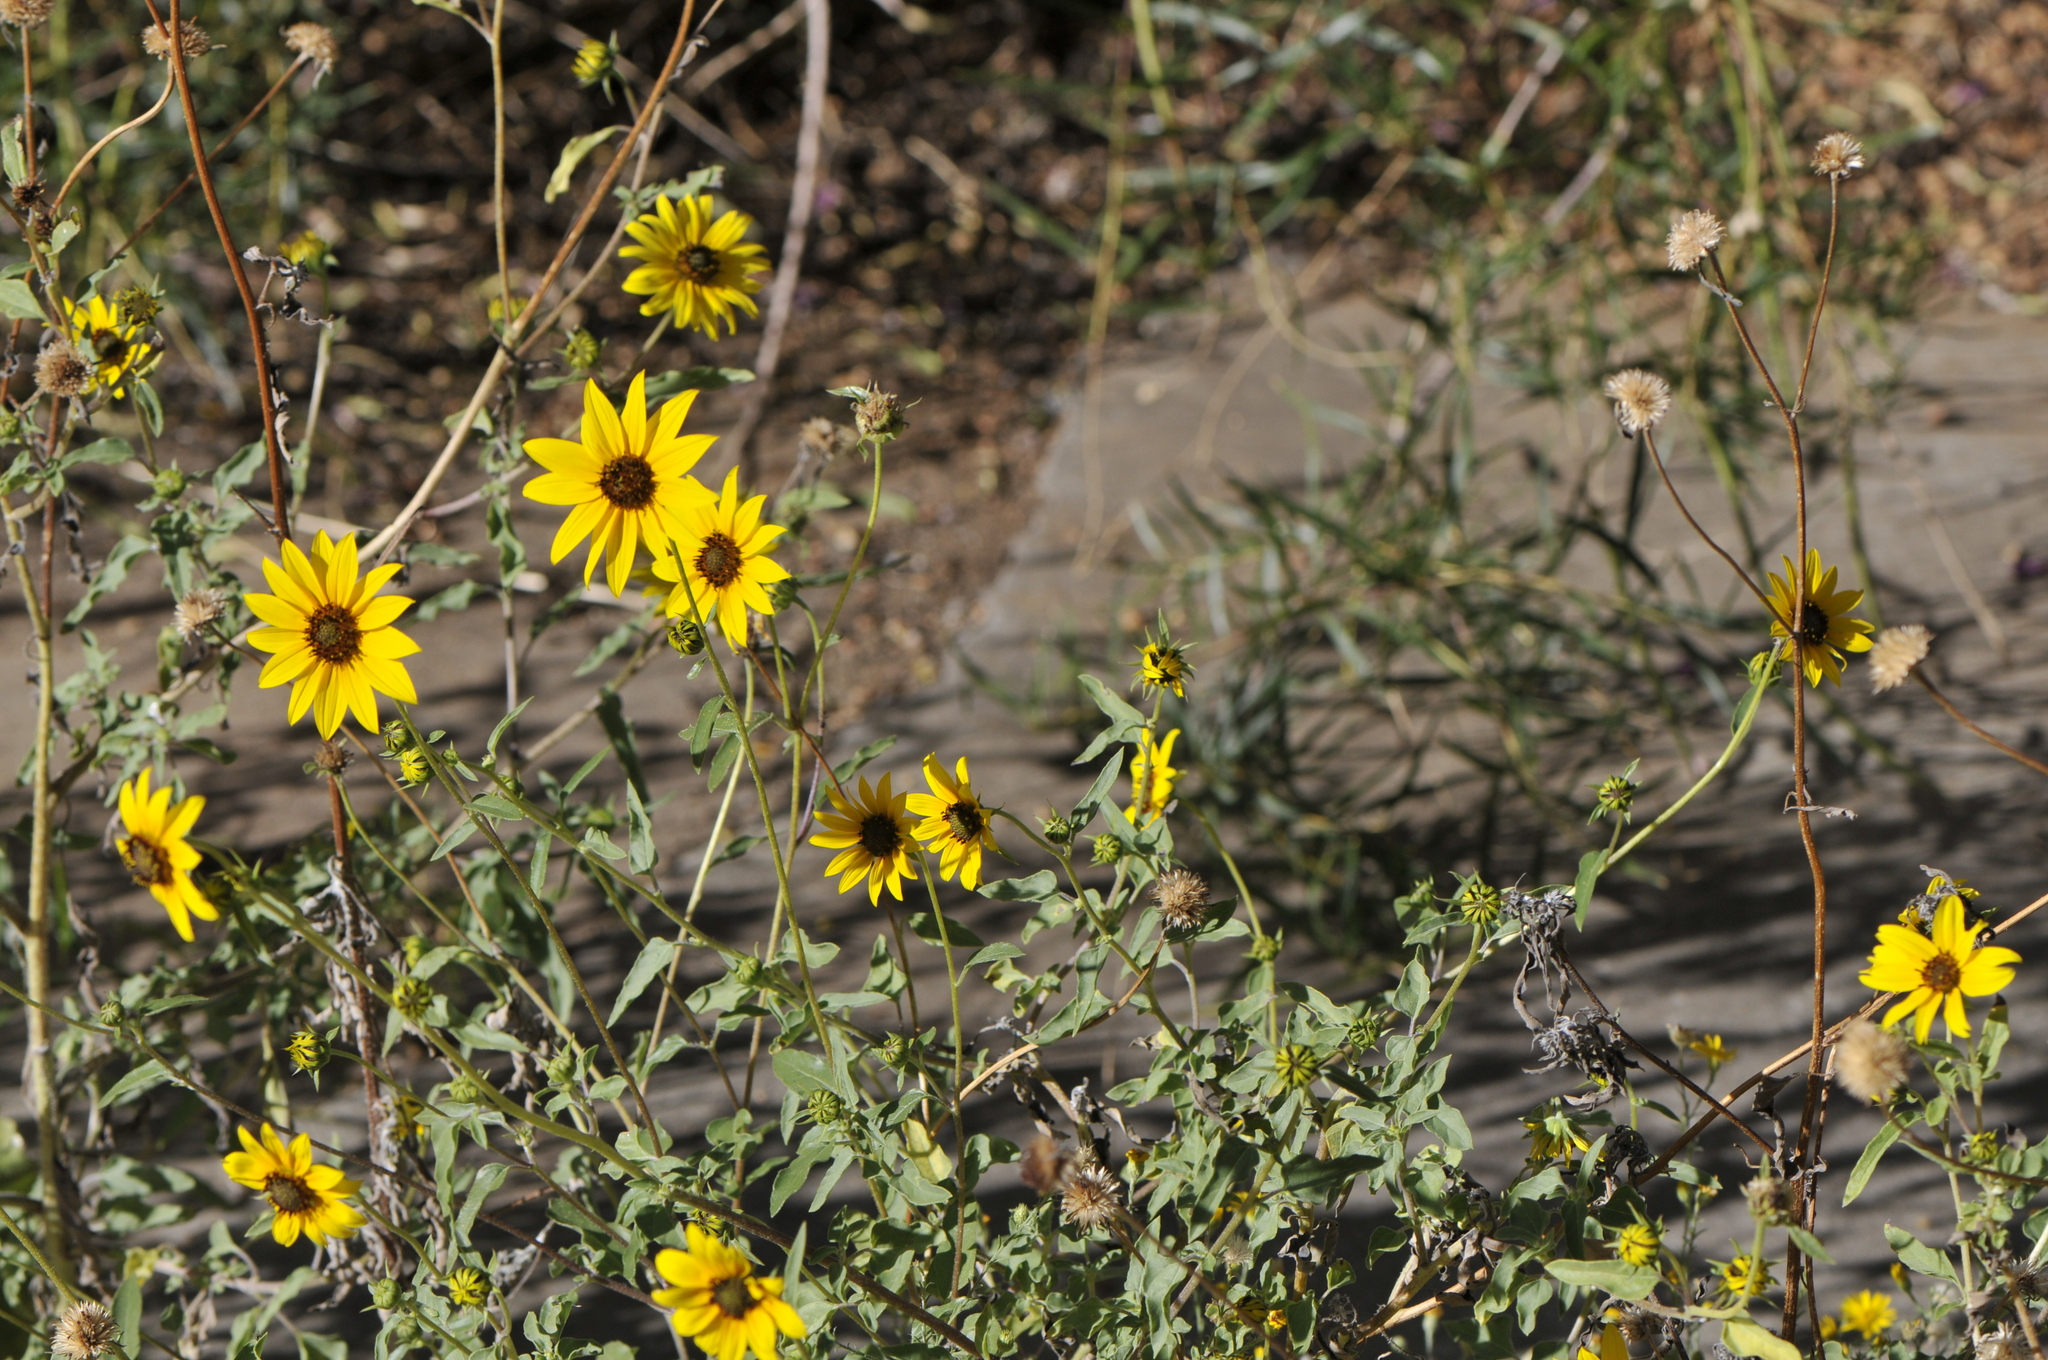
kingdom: Plantae
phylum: Tracheophyta
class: Magnoliopsida
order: Asterales
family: Asteraceae
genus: Helianthus
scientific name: Helianthus petiolaris
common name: Lesser sunflower
